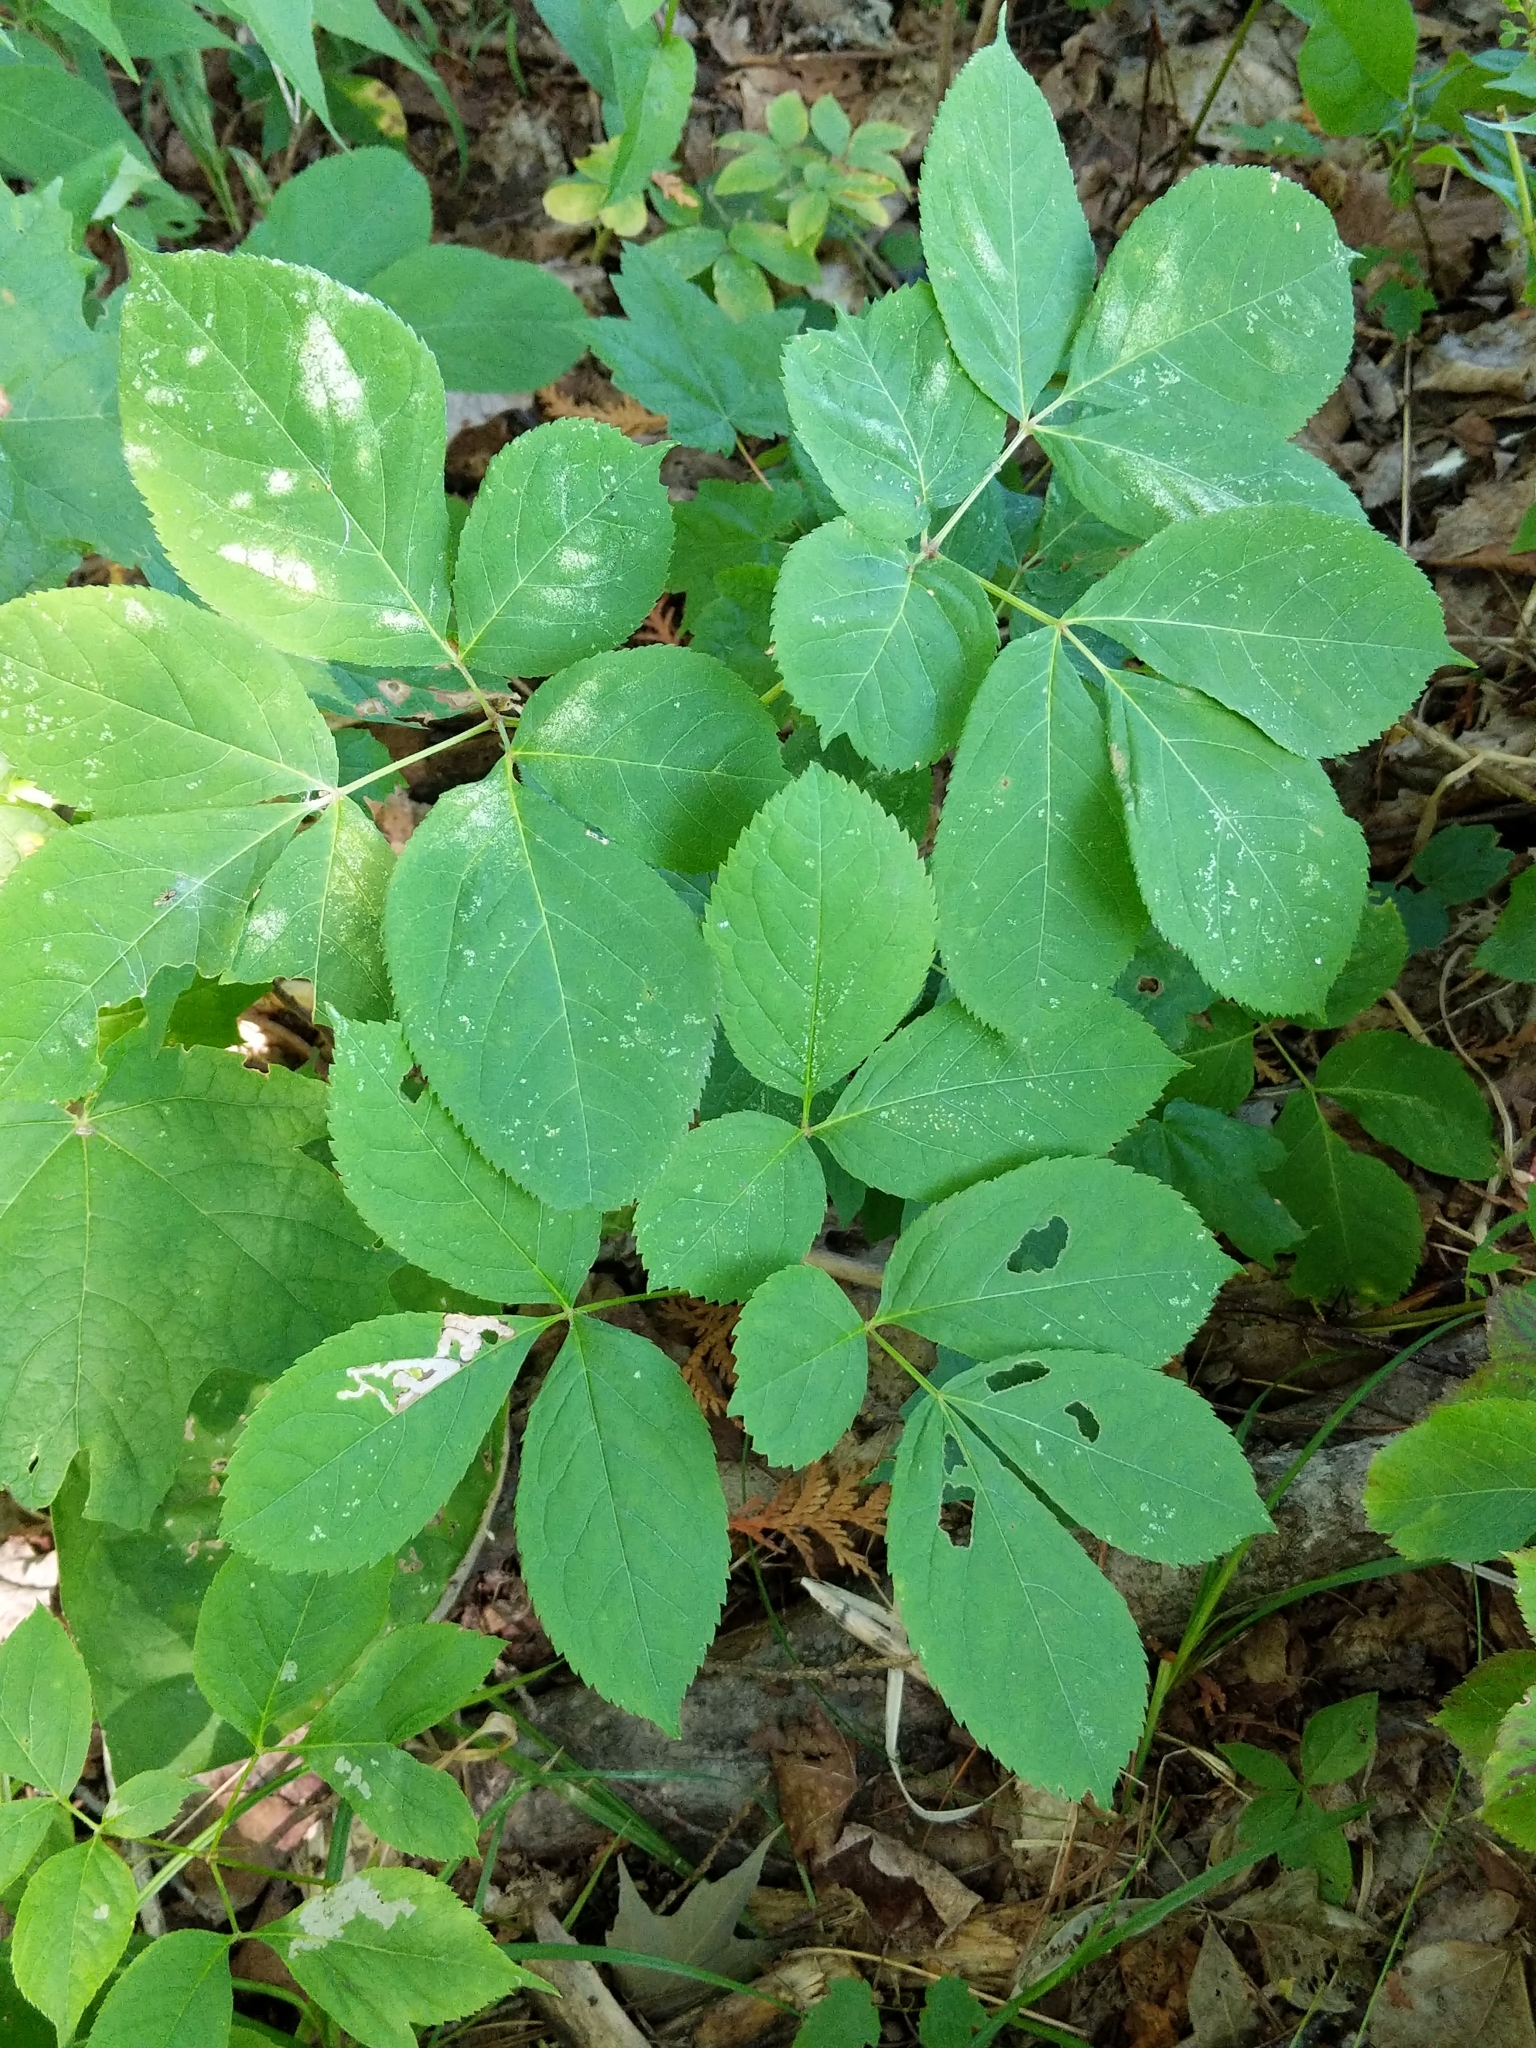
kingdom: Plantae
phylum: Tracheophyta
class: Magnoliopsida
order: Apiales
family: Araliaceae
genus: Aralia
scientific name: Aralia nudicaulis
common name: Wild sarsaparilla
